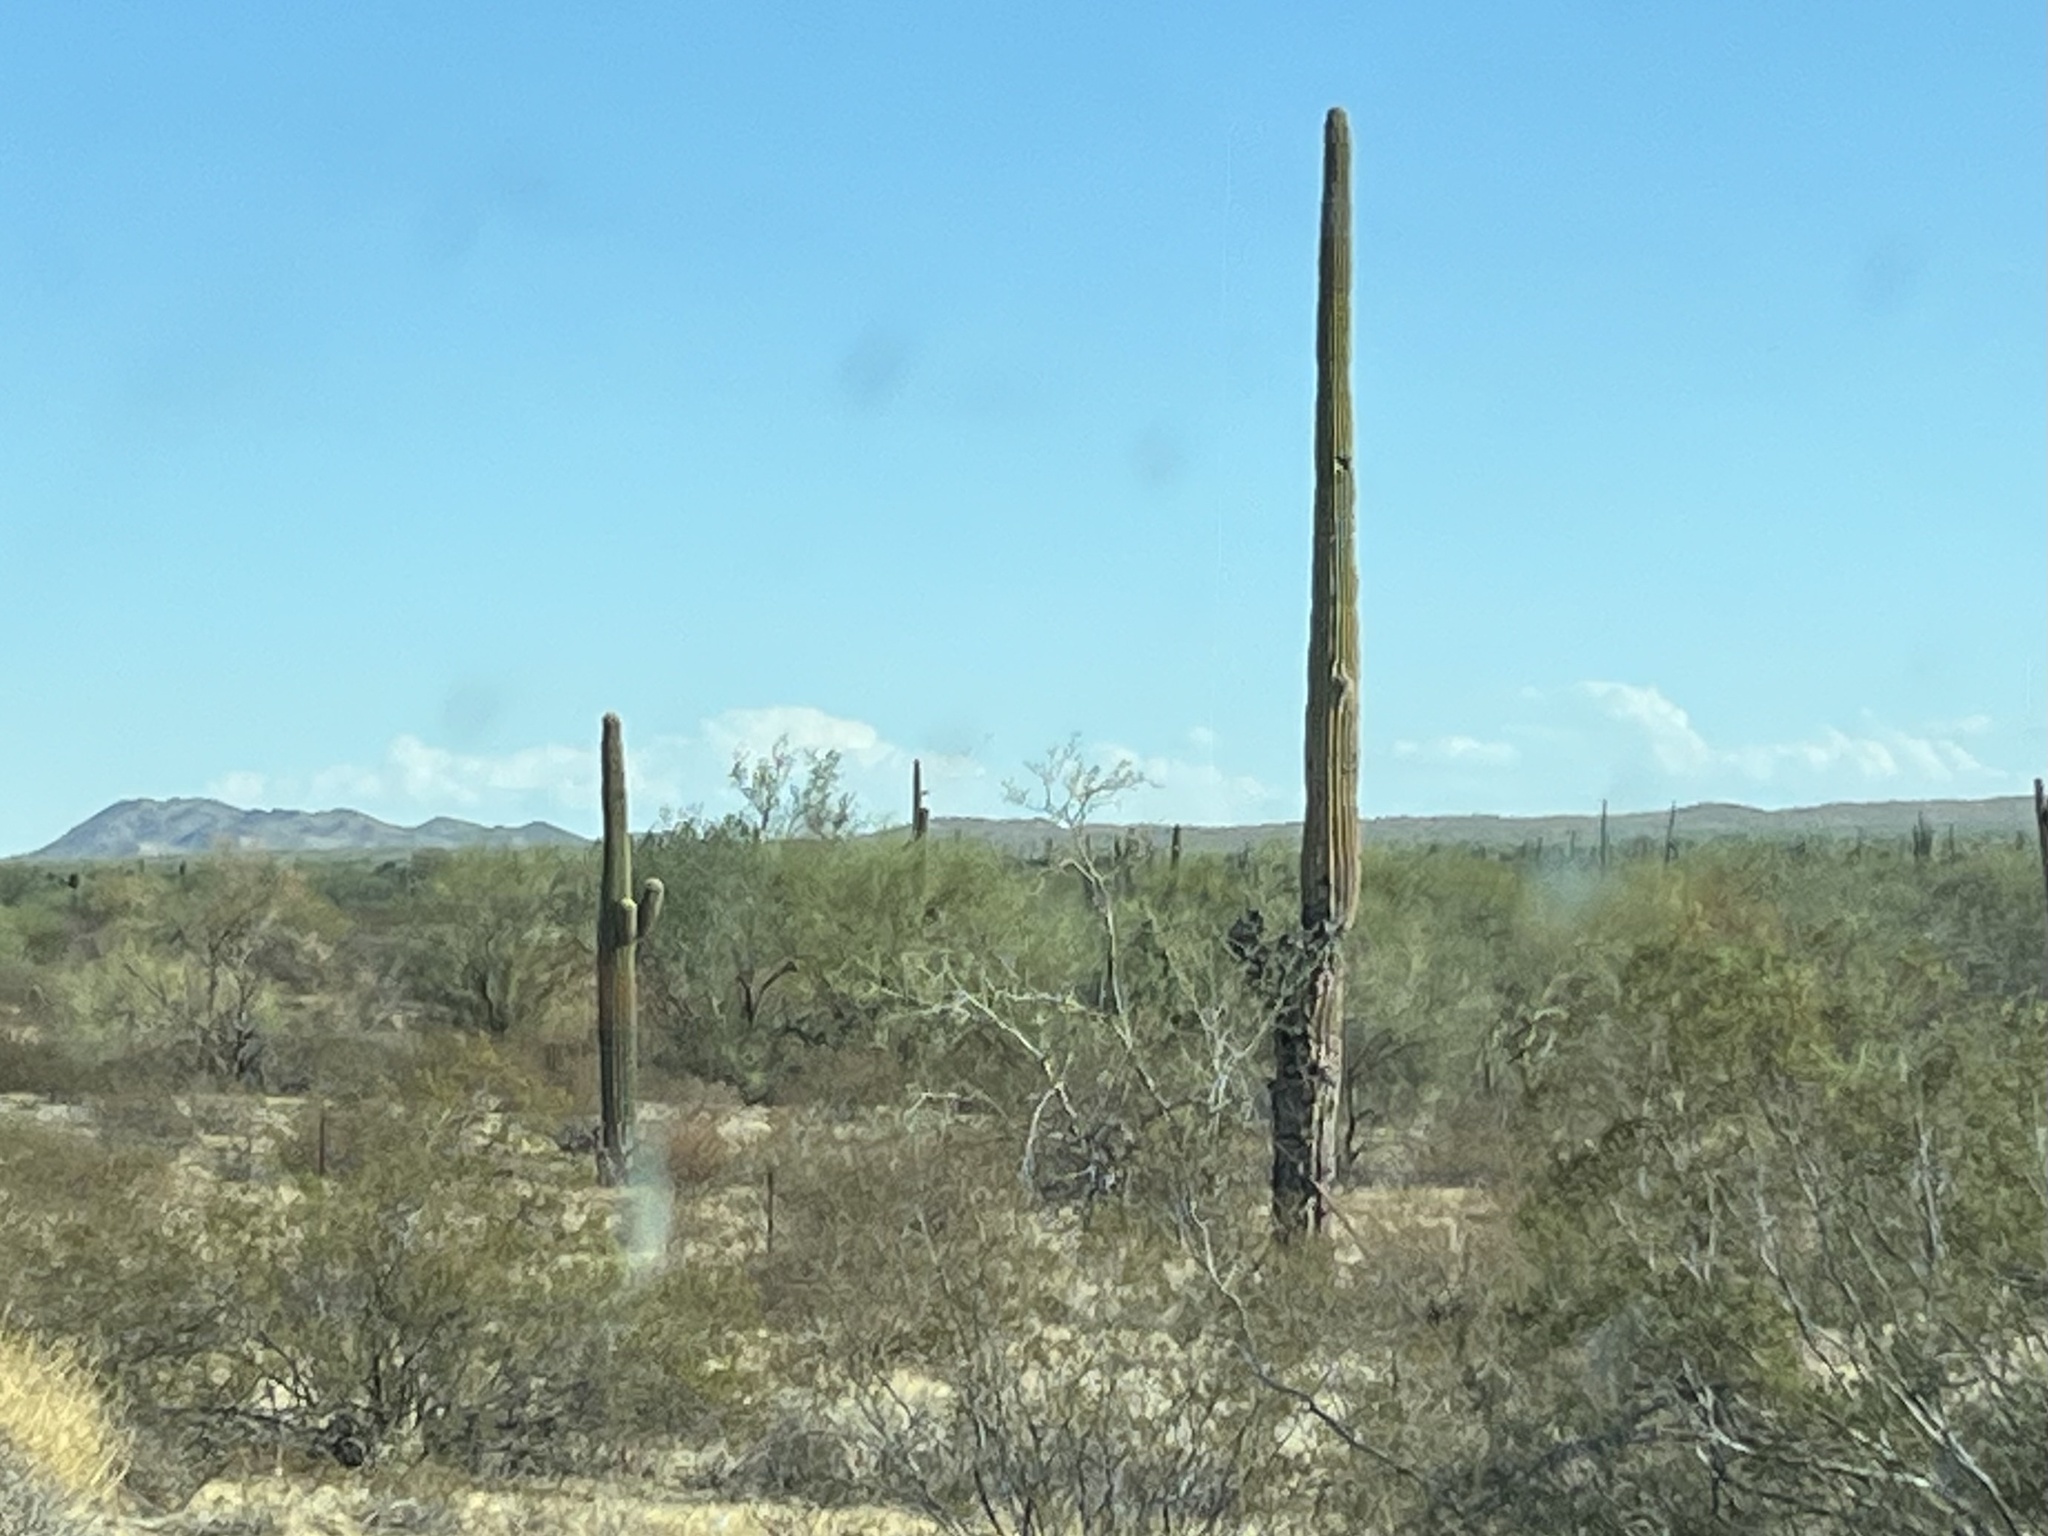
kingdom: Plantae
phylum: Tracheophyta
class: Magnoliopsida
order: Caryophyllales
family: Cactaceae
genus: Carnegiea
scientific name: Carnegiea gigantea
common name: Saguaro
